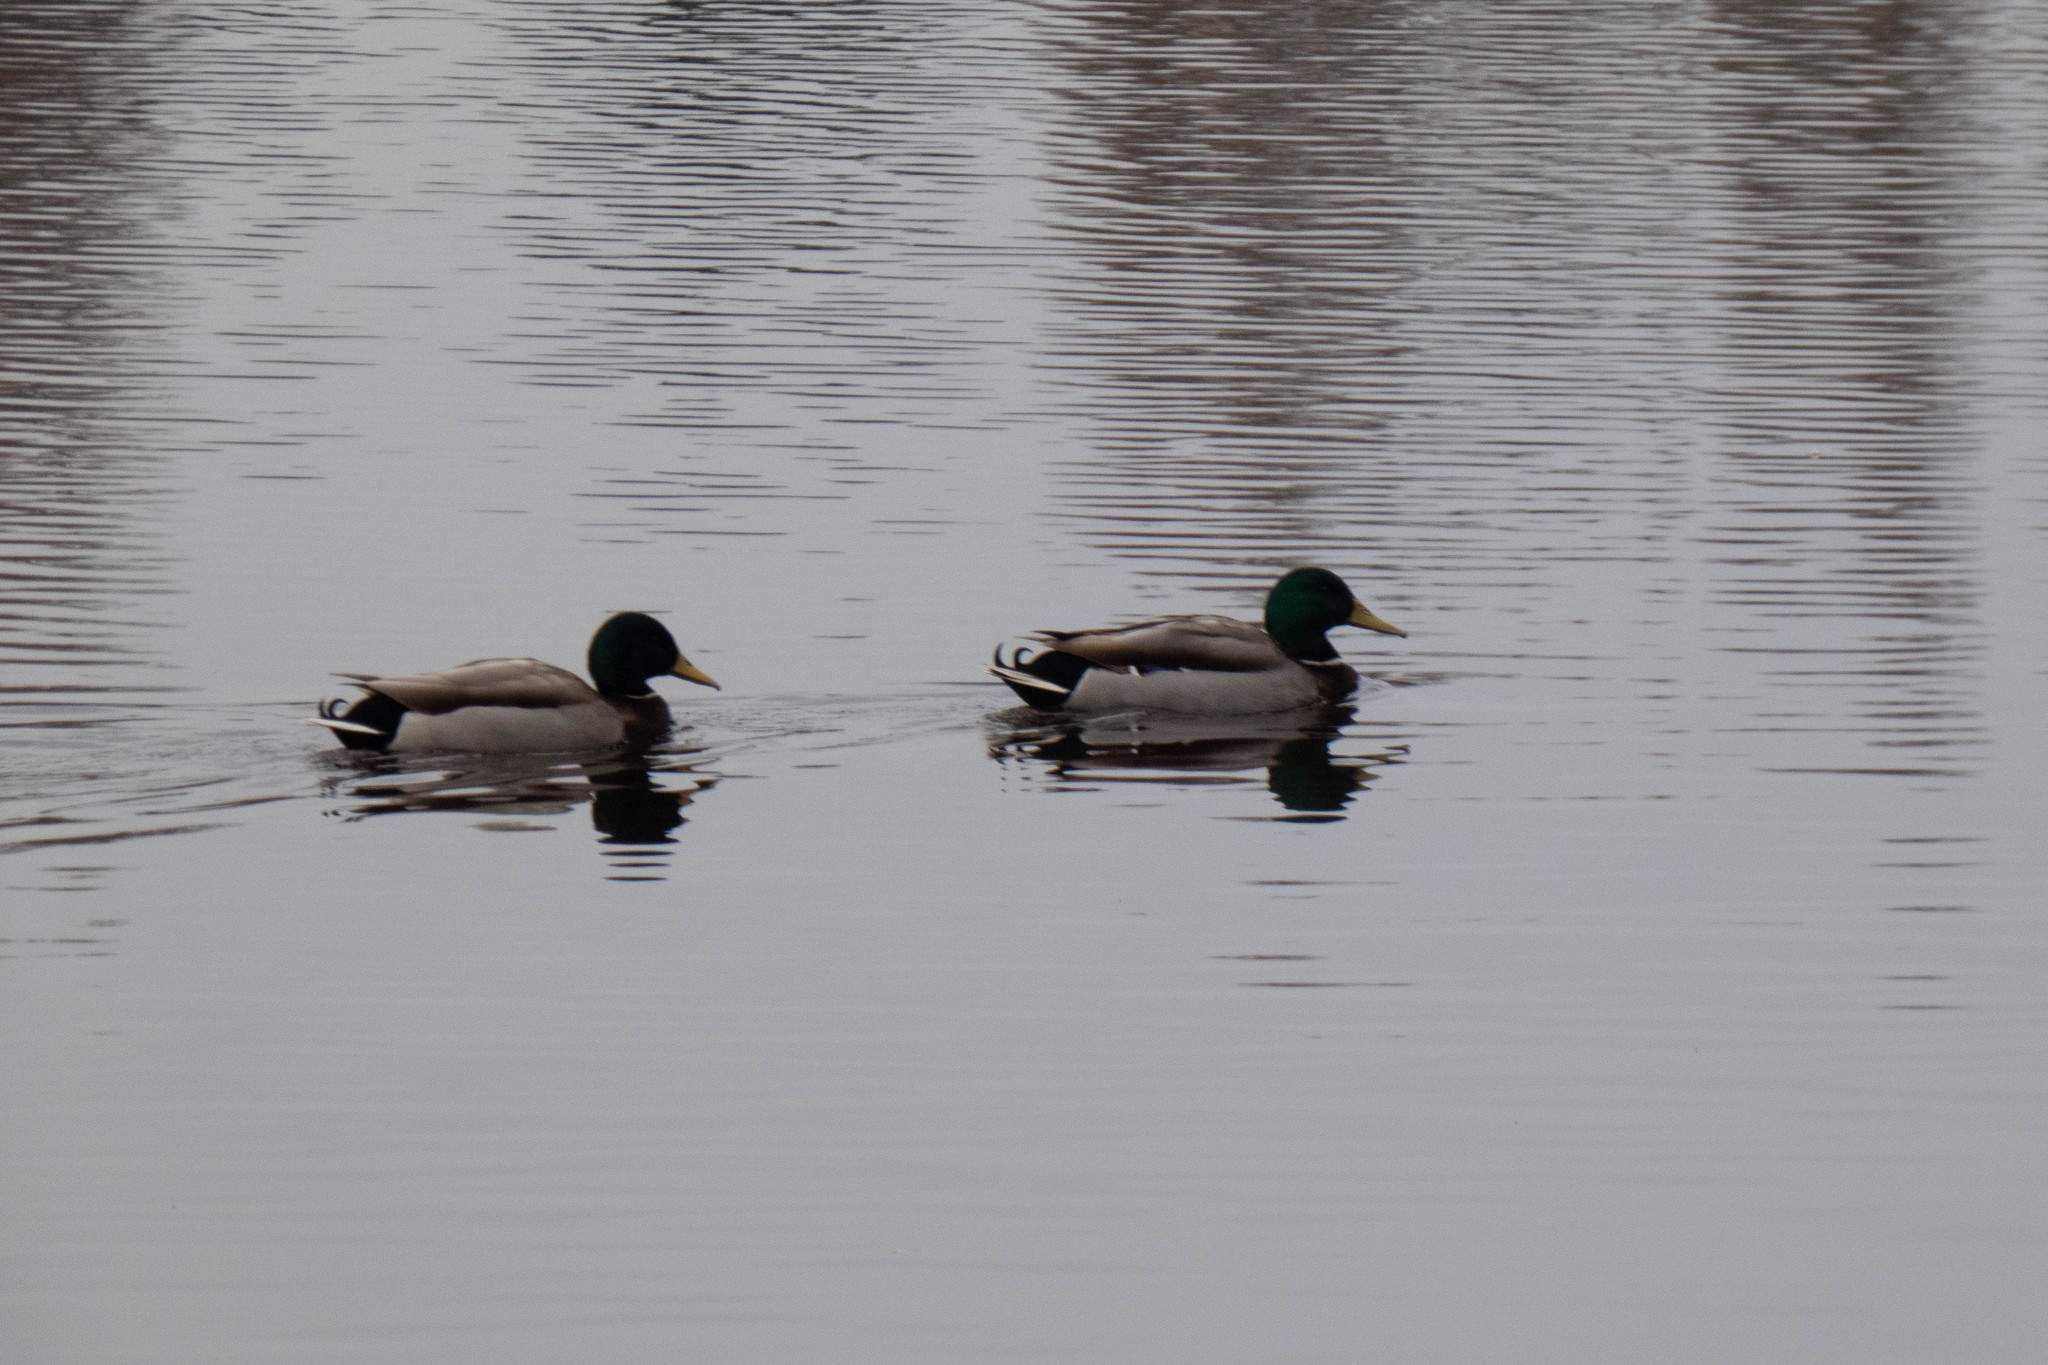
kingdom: Animalia
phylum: Chordata
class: Aves
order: Anseriformes
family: Anatidae
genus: Anas
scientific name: Anas platyrhynchos
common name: Mallard
